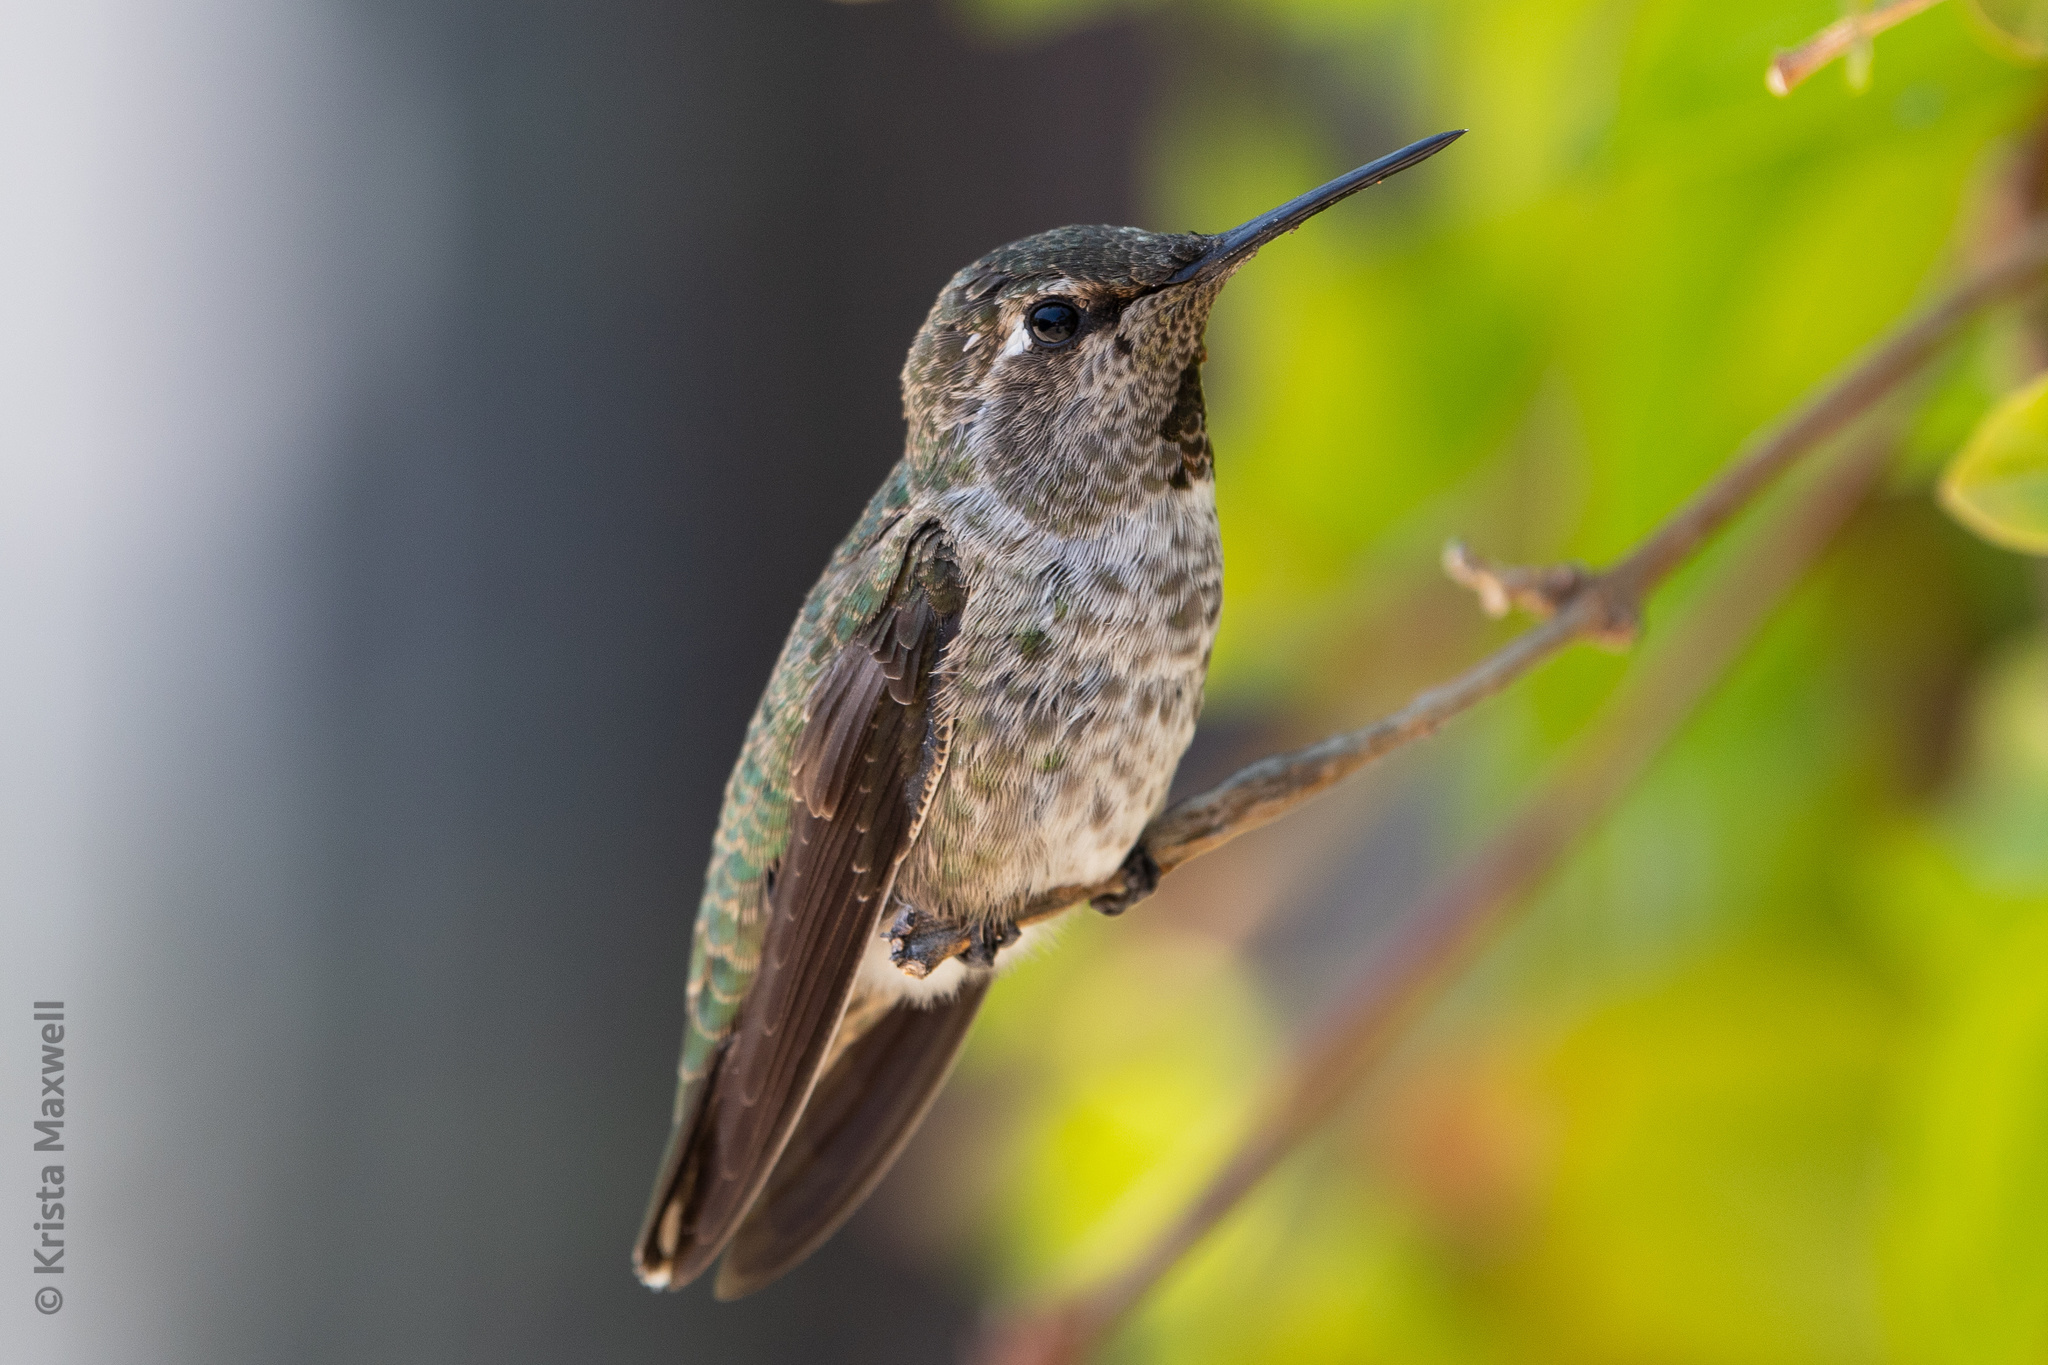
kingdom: Animalia
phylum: Chordata
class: Aves
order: Apodiformes
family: Trochilidae
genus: Calypte
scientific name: Calypte anna
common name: Anna's hummingbird
